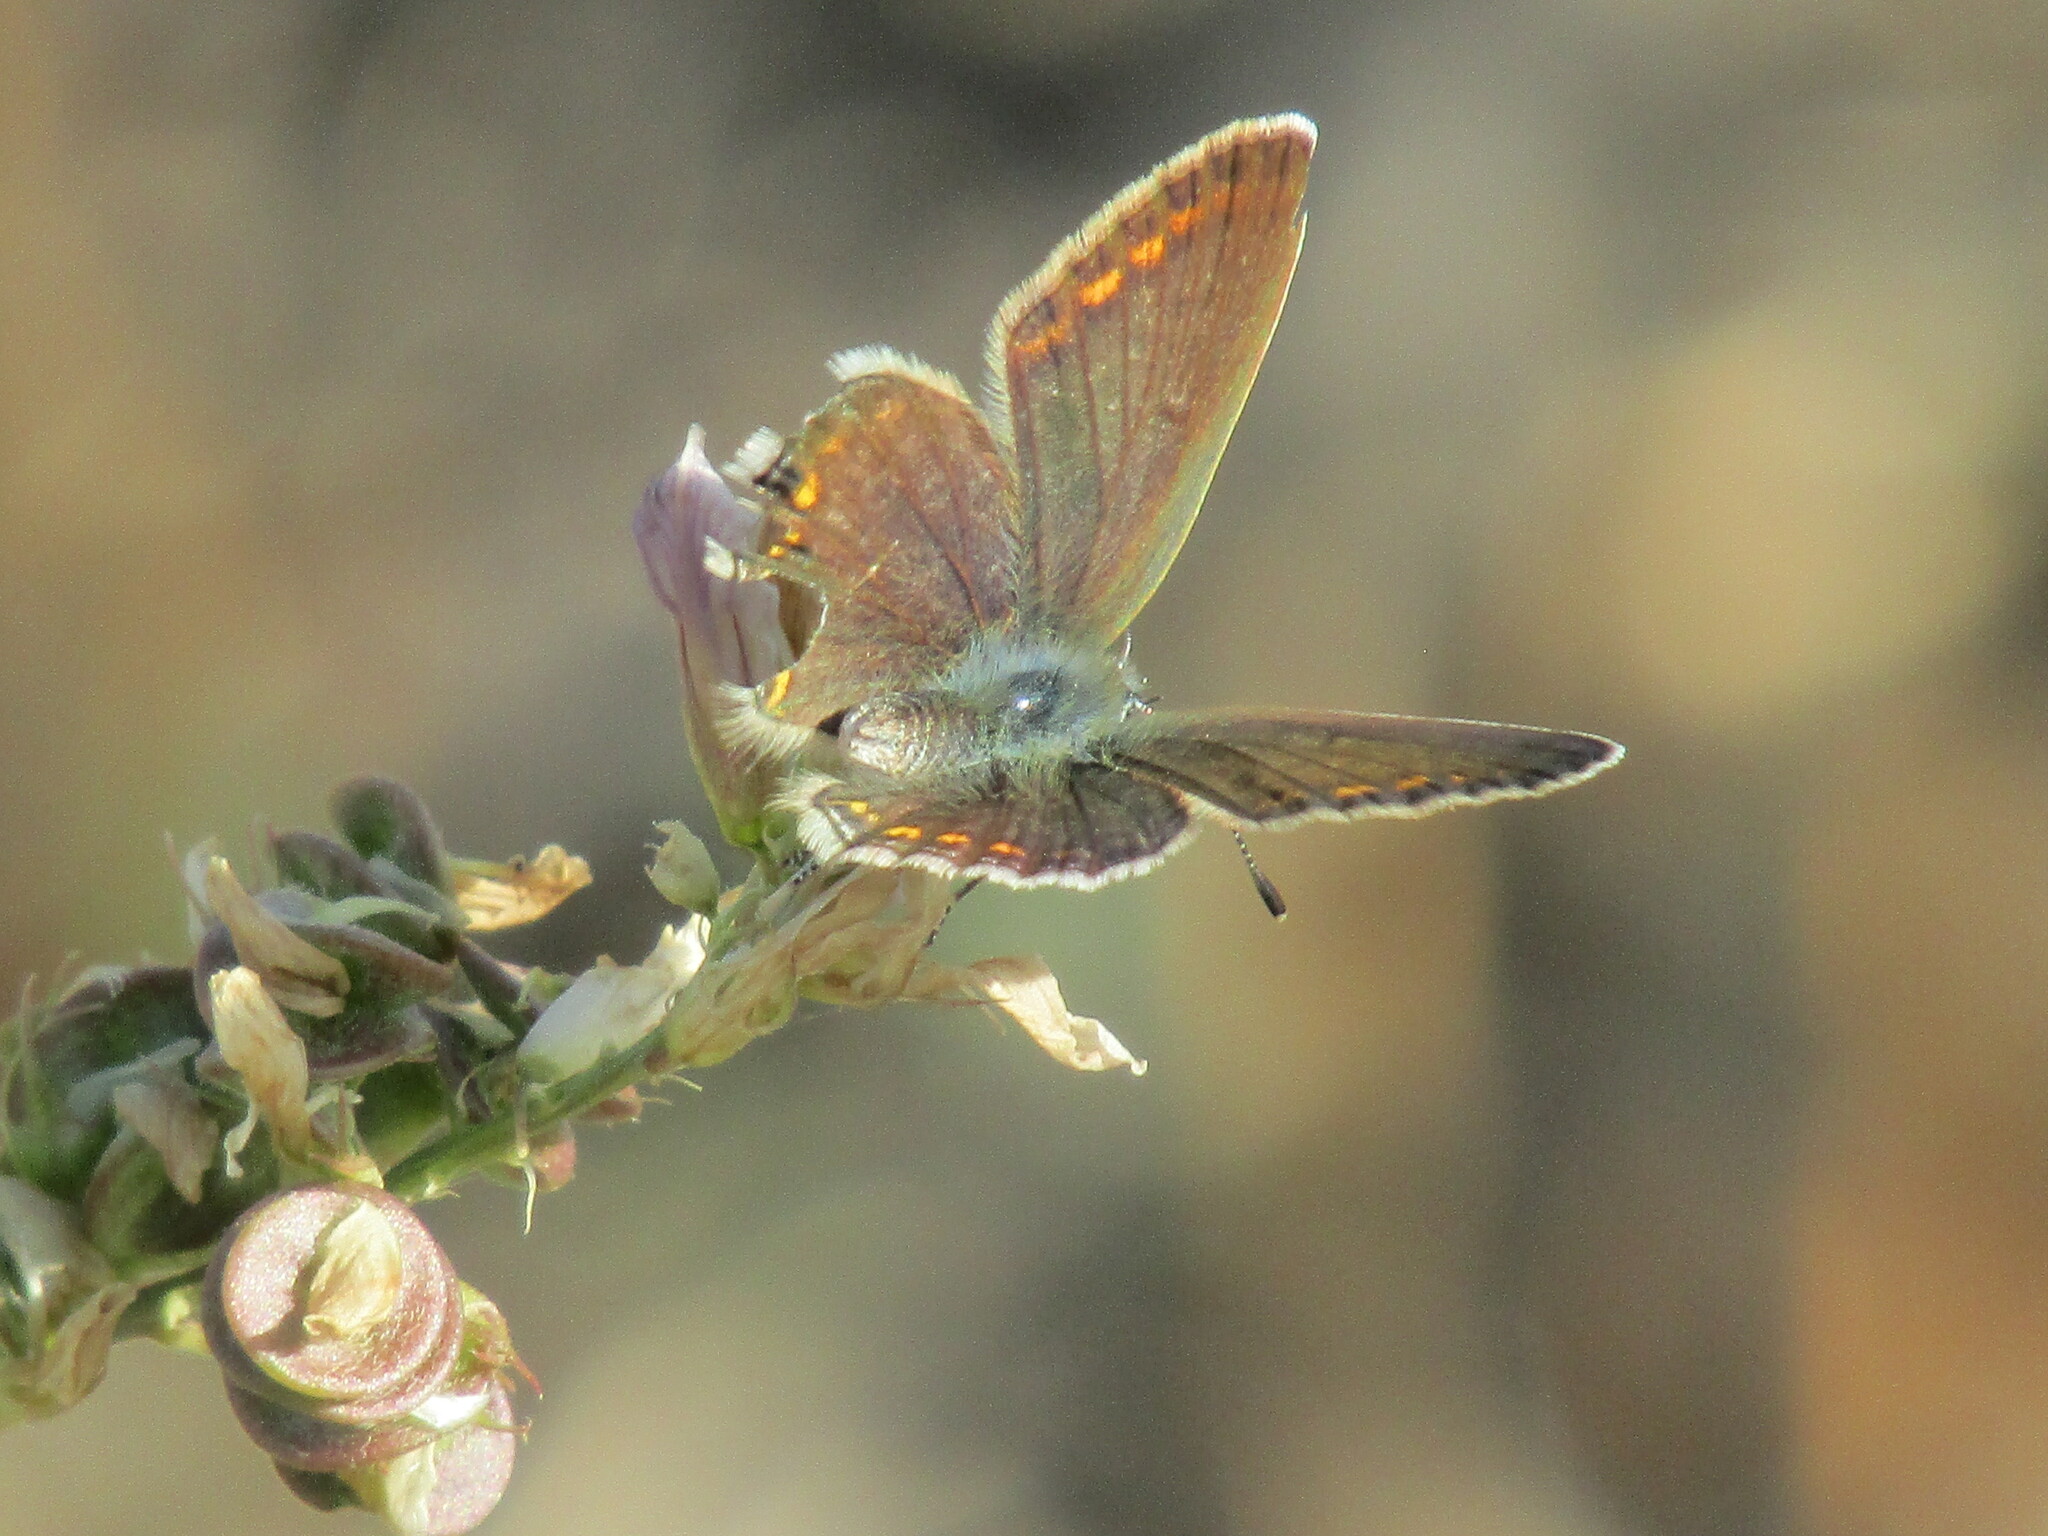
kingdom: Animalia
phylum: Arthropoda
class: Insecta
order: Lepidoptera
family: Lycaenidae
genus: Polyommatus
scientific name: Polyommatus icarus
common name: Common blue
